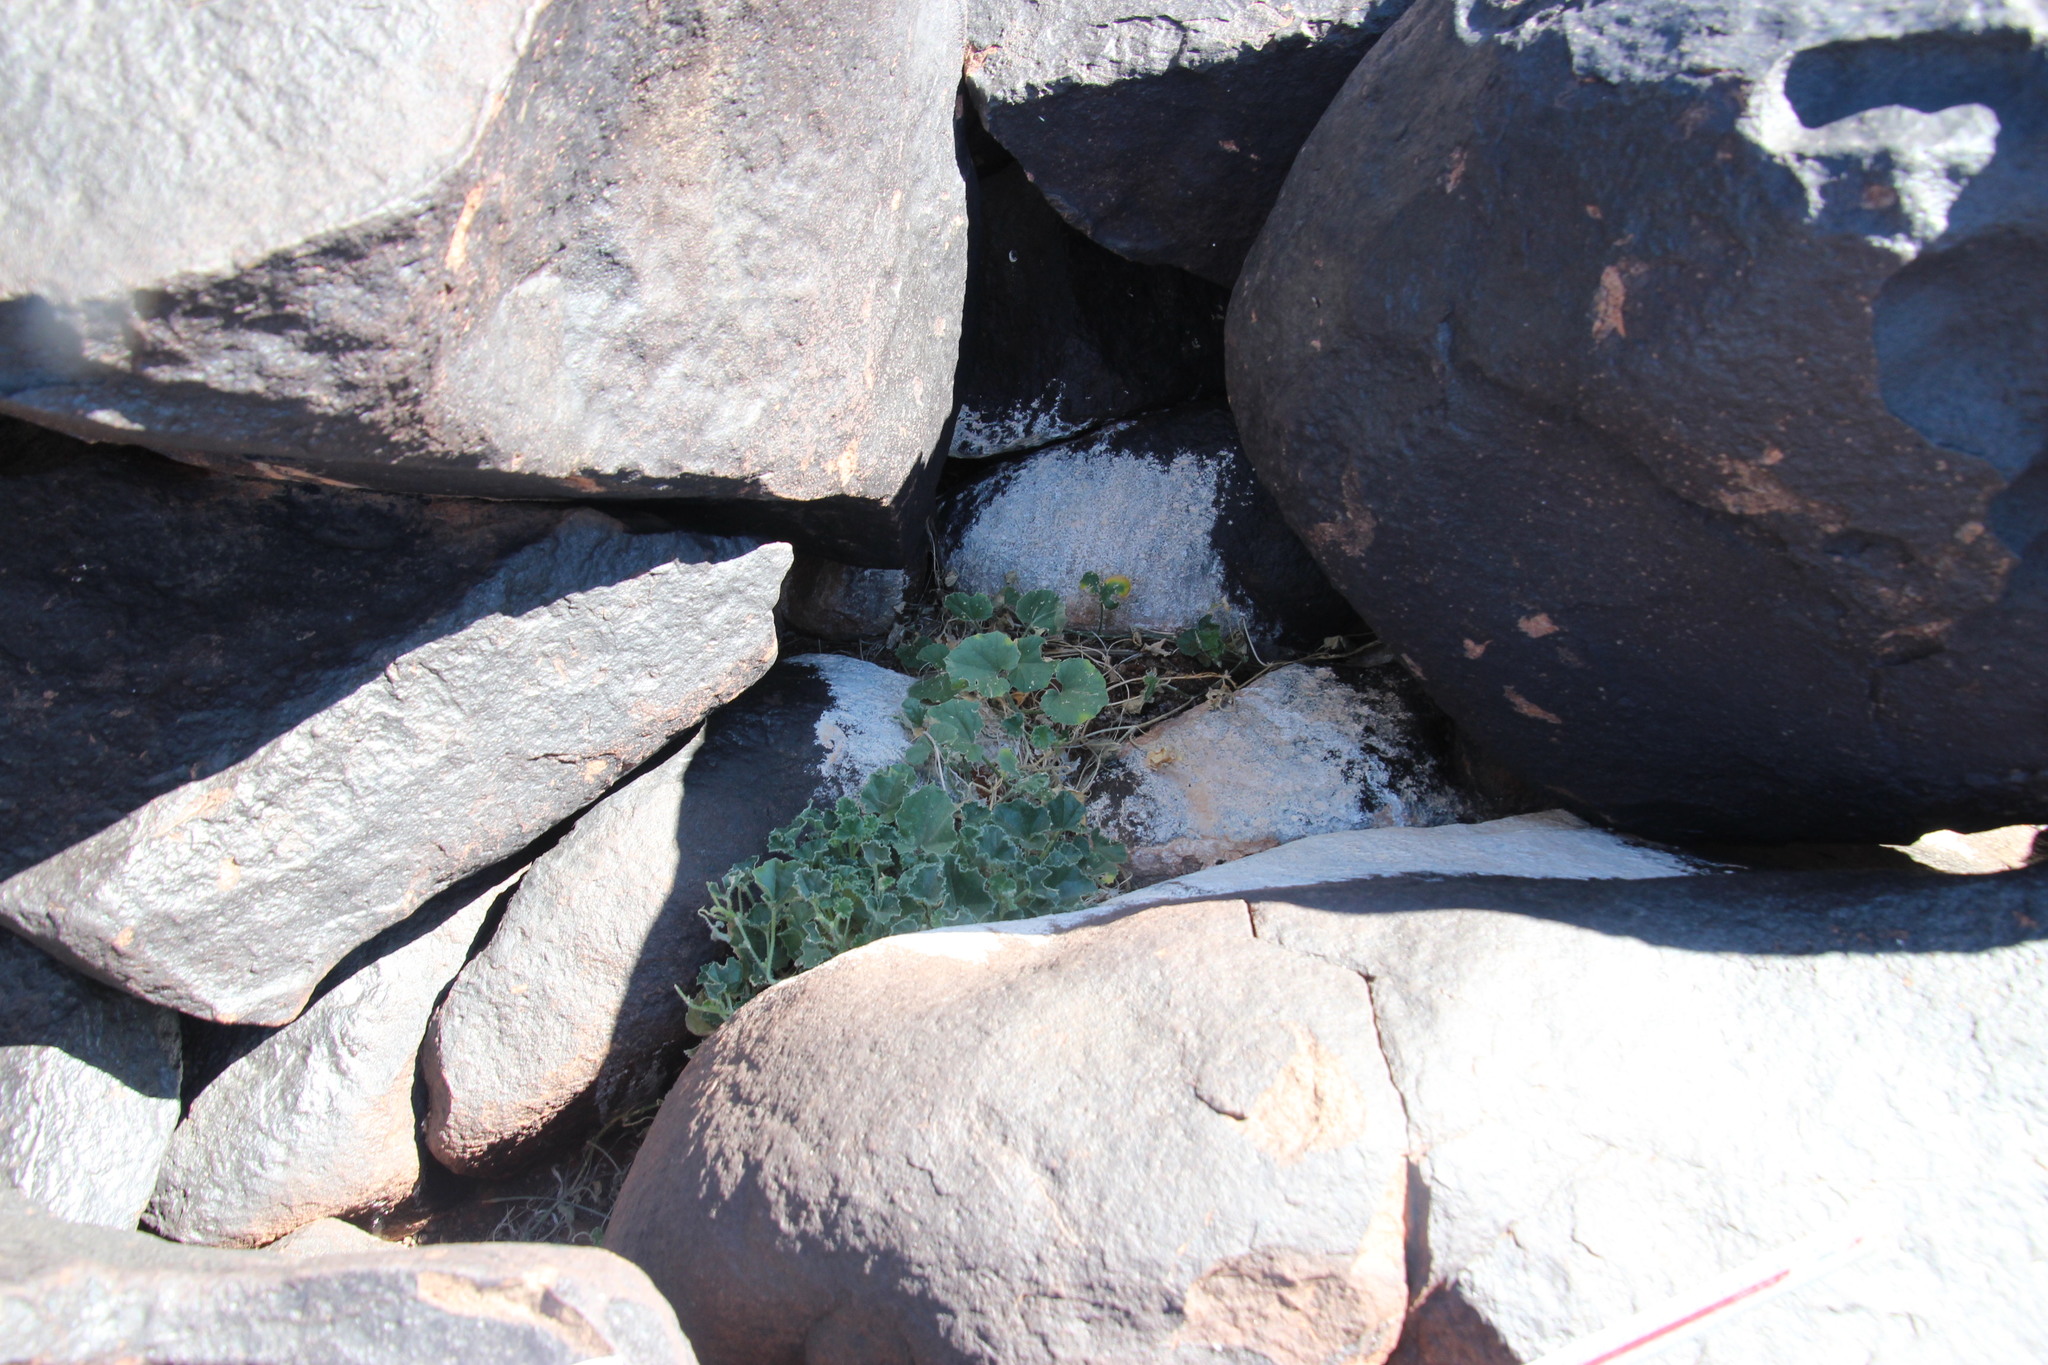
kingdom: Plantae
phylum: Tracheophyta
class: Magnoliopsida
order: Cucurbitales
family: Cucurbitaceae
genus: Cucumis
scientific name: Cucumis sagittatus
